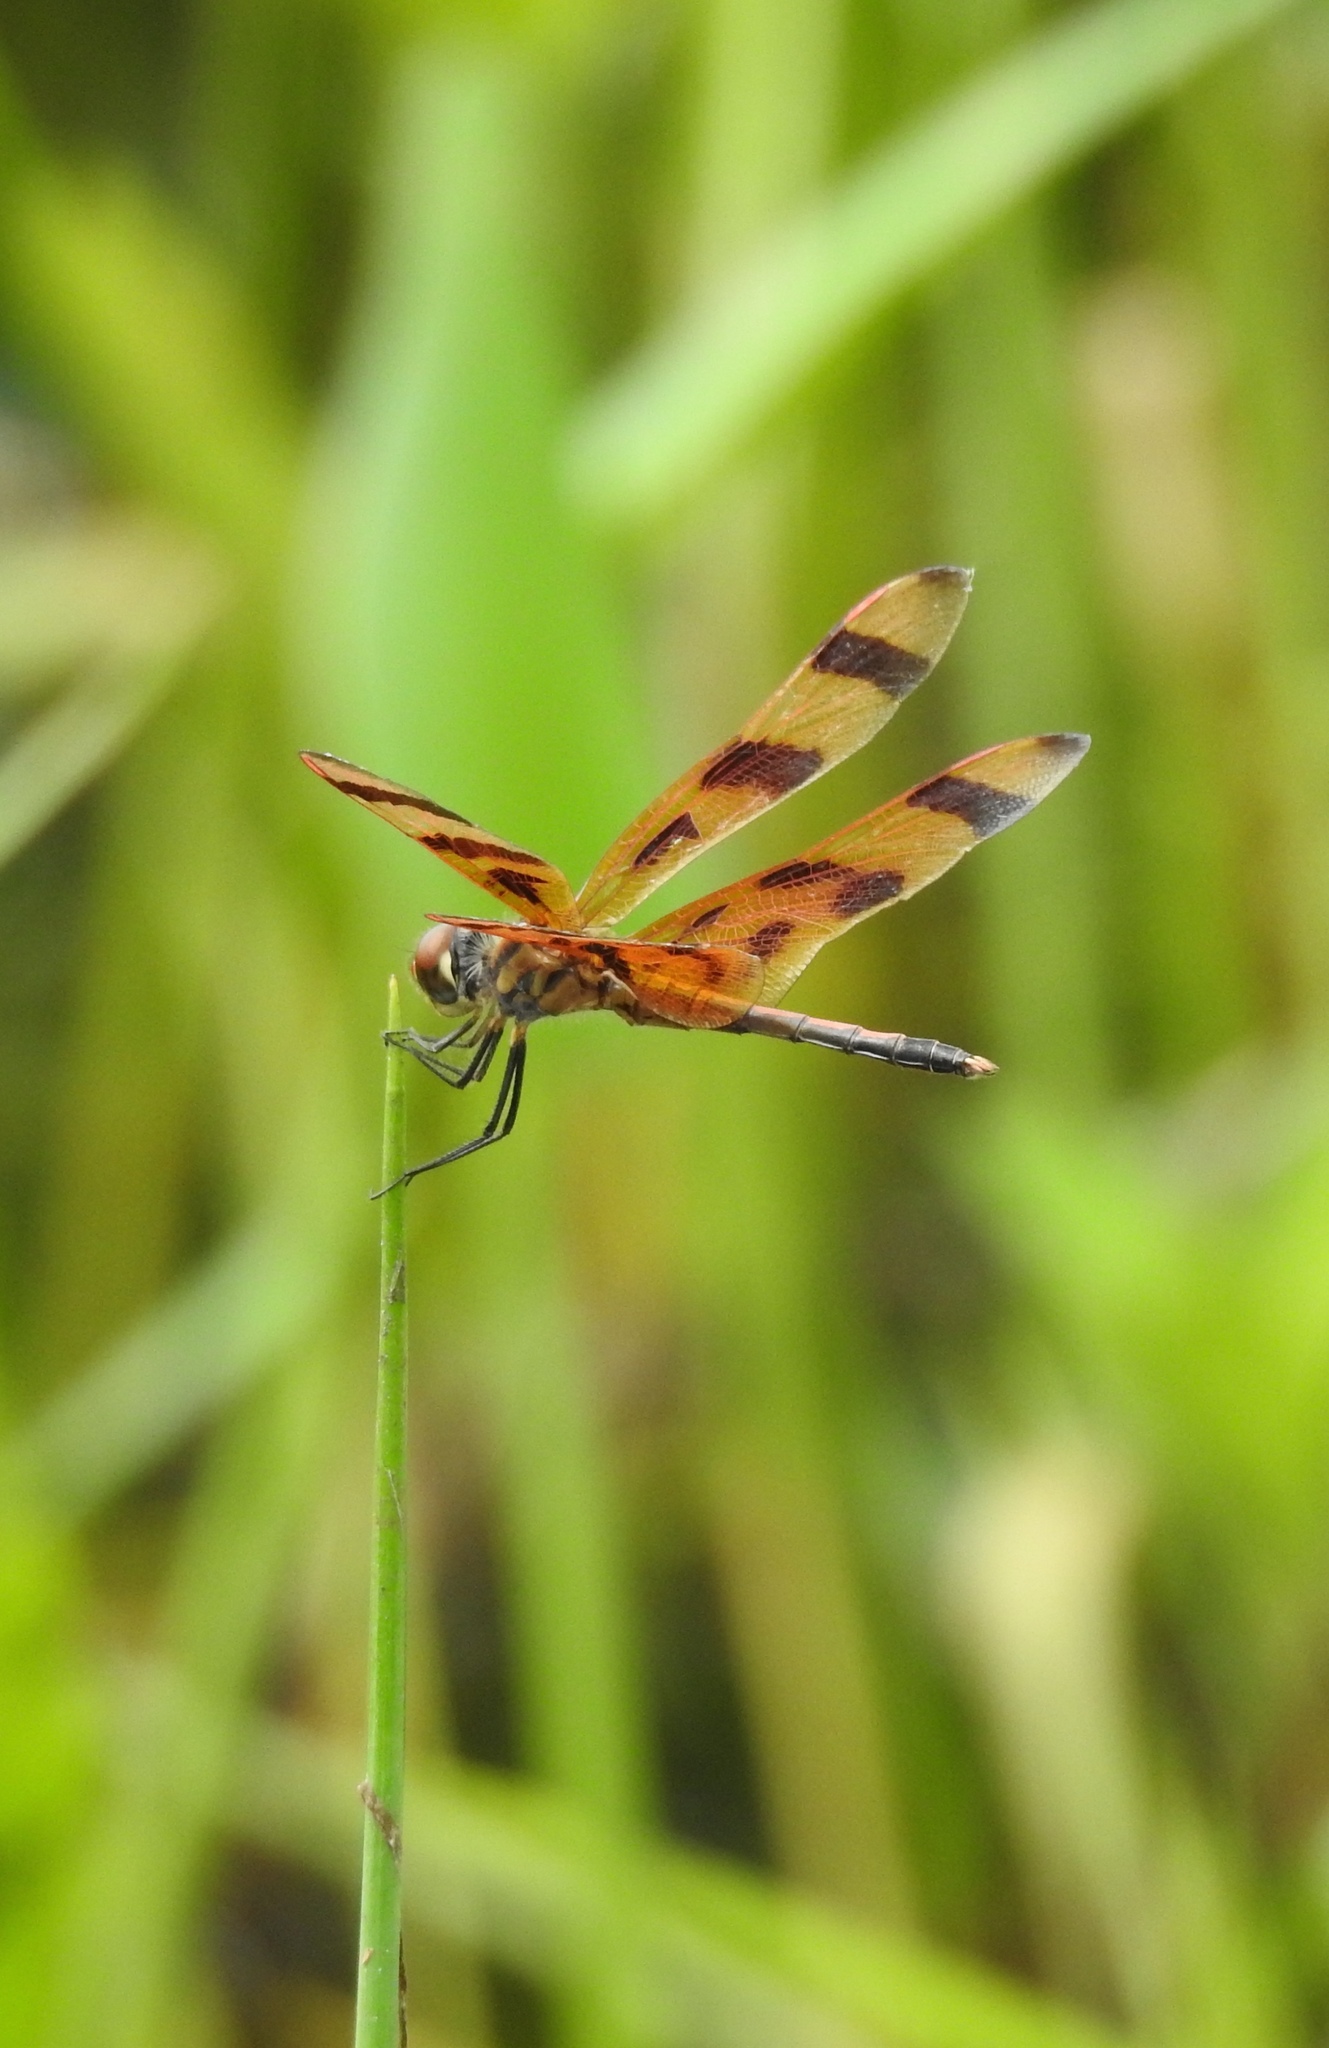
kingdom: Animalia
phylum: Arthropoda
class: Insecta
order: Odonata
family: Libellulidae
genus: Celithemis
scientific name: Celithemis eponina
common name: Halloween pennant
